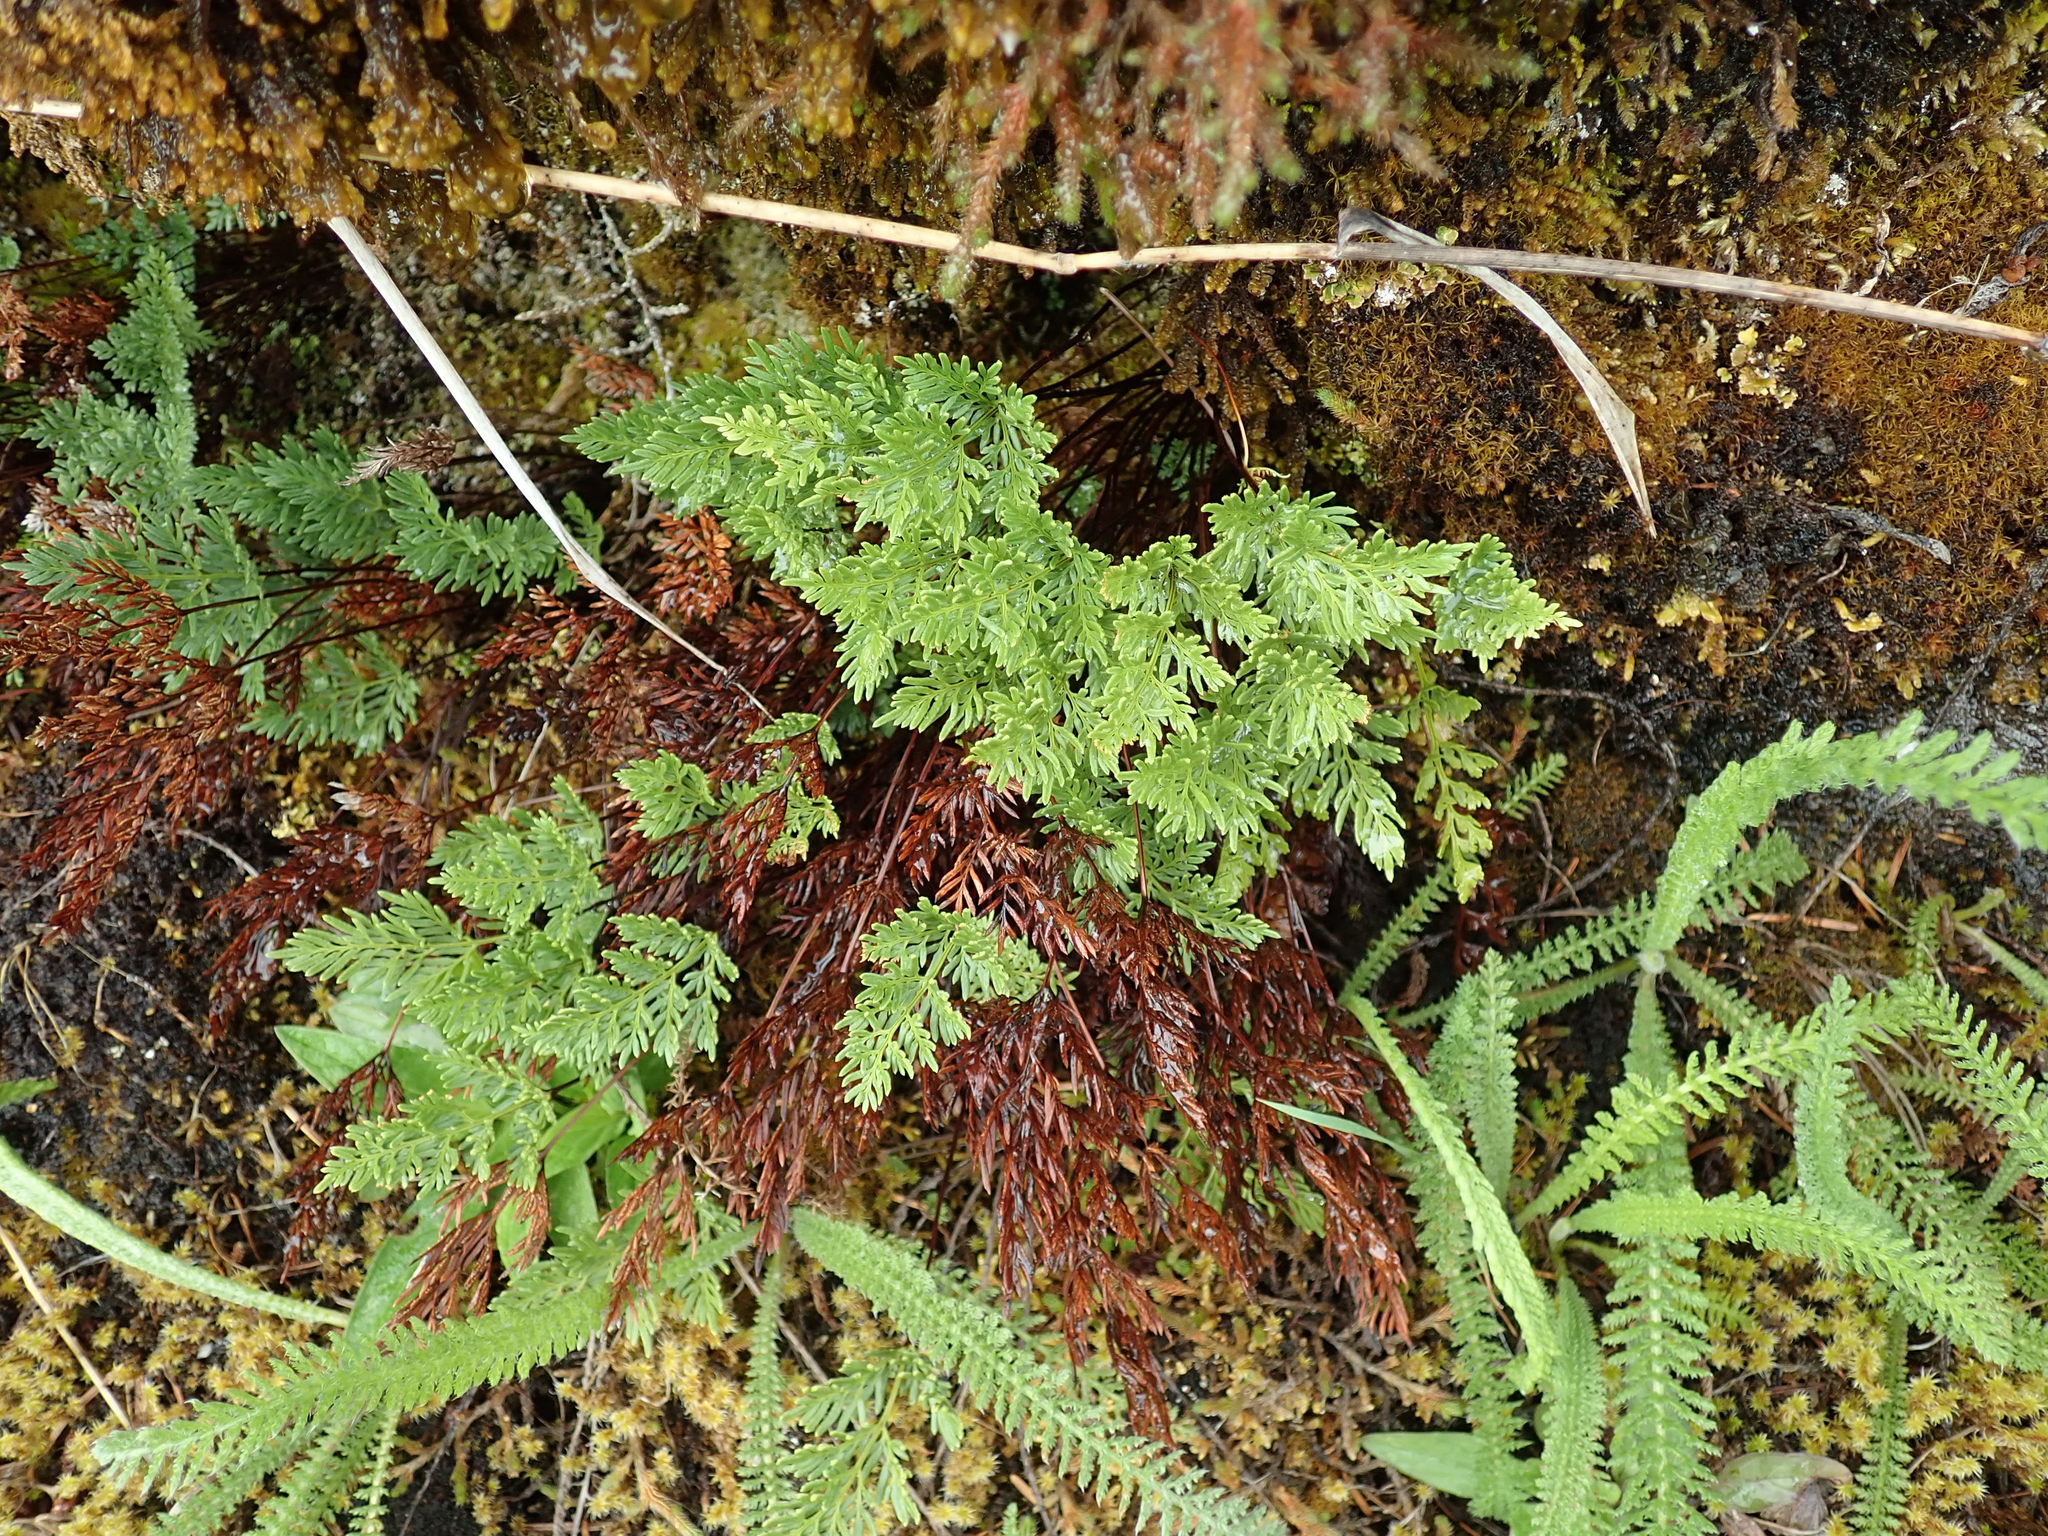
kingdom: Plantae
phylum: Tracheophyta
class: Polypodiopsida
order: Polypodiales
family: Pteridaceae
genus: Aspidotis
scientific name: Aspidotis densa
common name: Indian's dream
